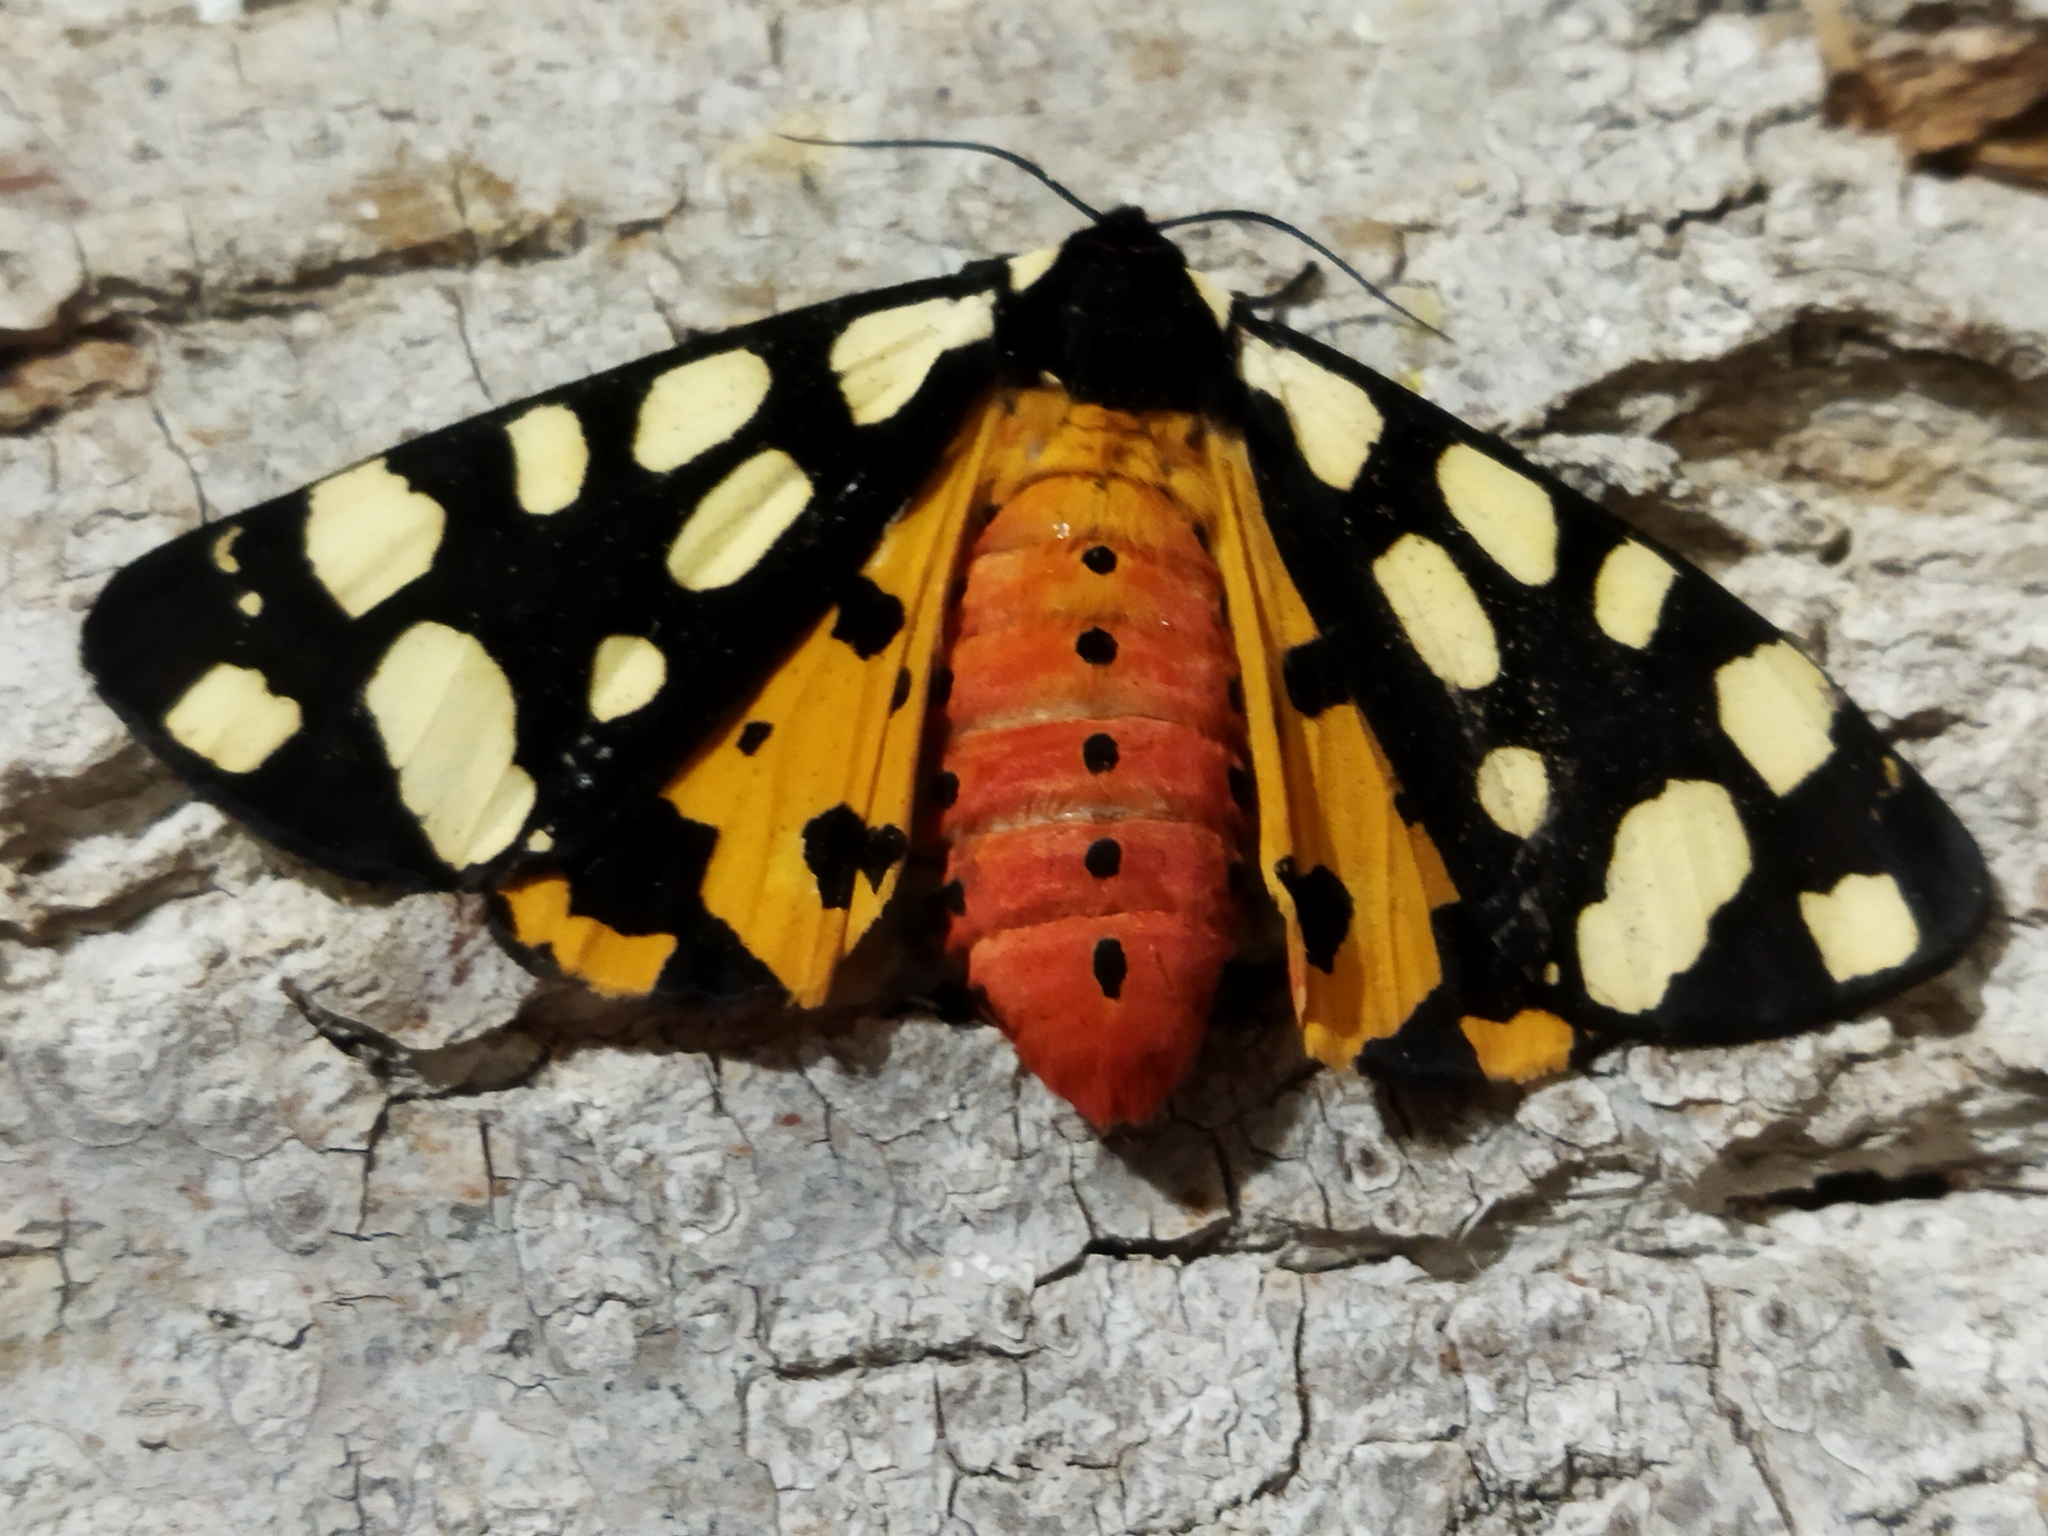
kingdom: Animalia
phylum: Arthropoda
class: Insecta
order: Lepidoptera
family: Erebidae
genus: Epicallia
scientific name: Epicallia villica
